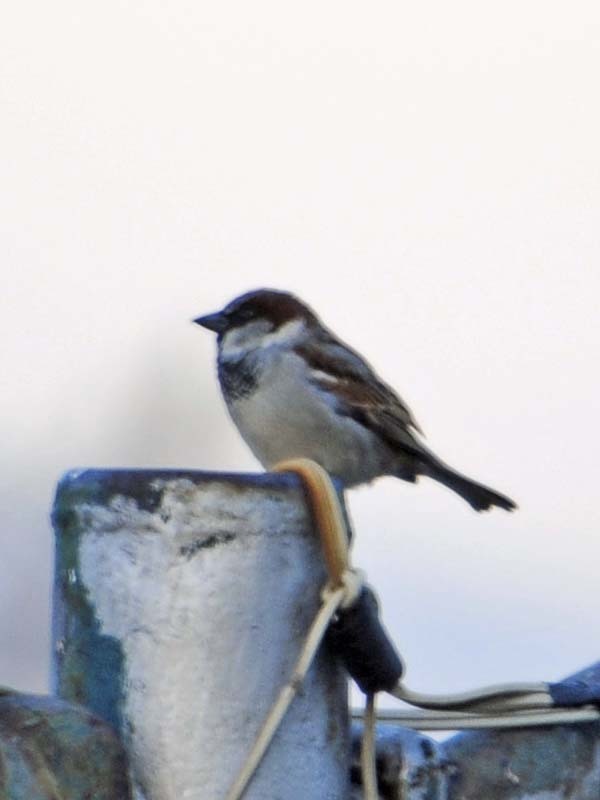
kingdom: Animalia
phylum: Chordata
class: Aves
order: Passeriformes
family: Passeridae
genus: Passer
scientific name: Passer domesticus
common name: House sparrow
